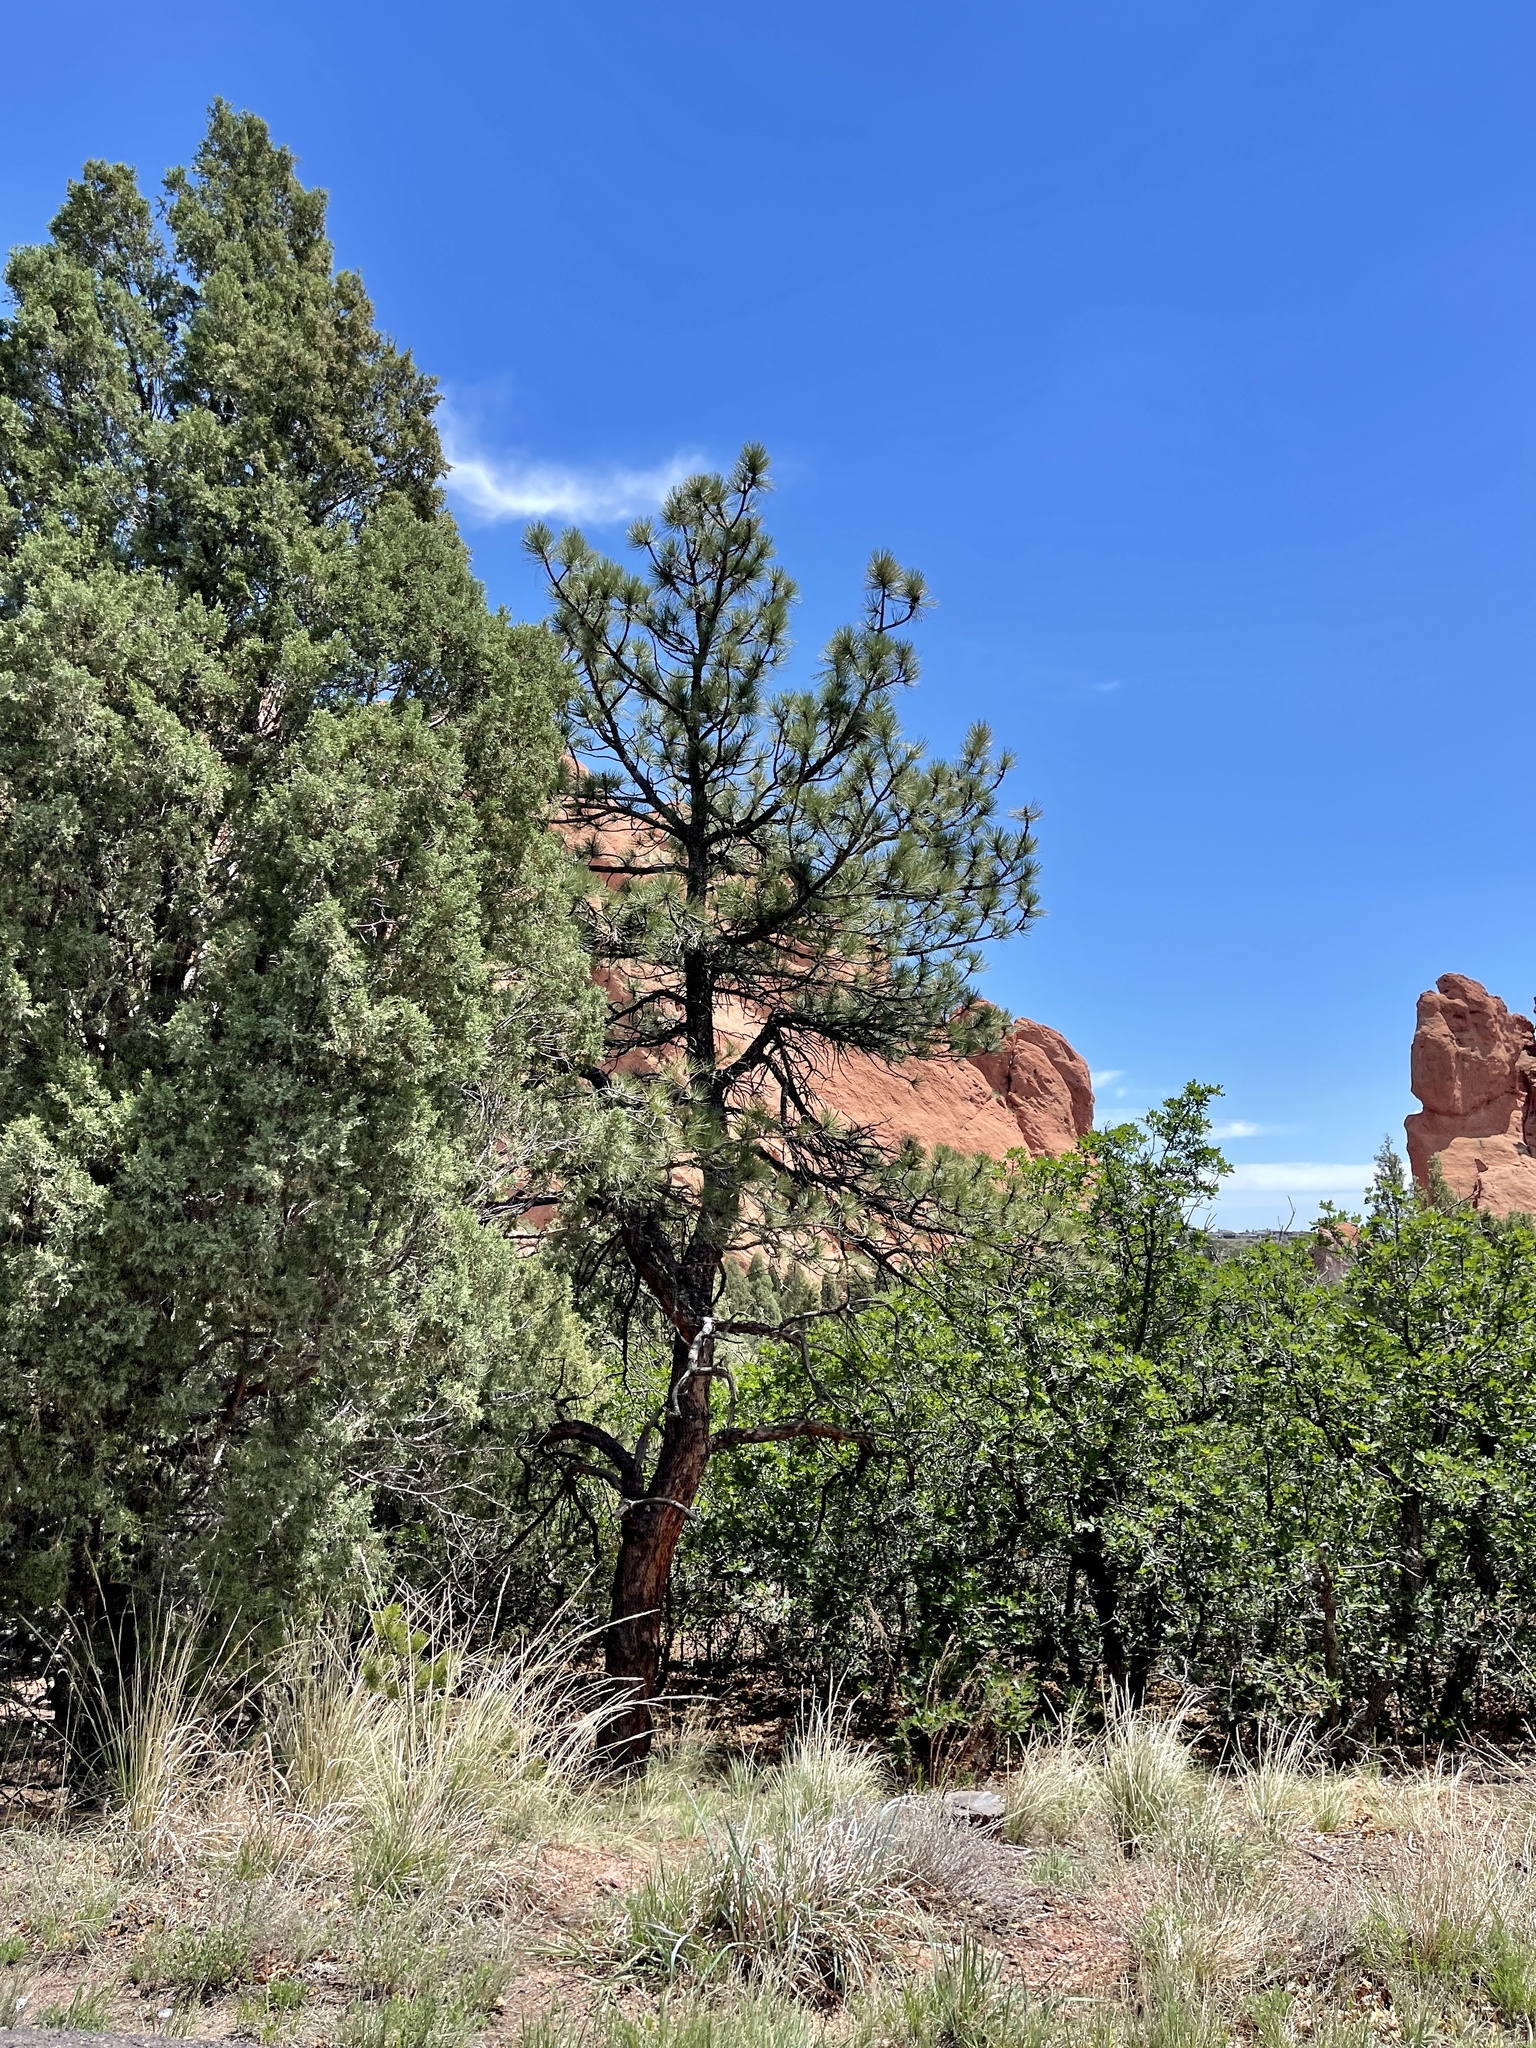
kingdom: Plantae
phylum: Tracheophyta
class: Pinopsida
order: Pinales
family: Pinaceae
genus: Pinus
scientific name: Pinus ponderosa
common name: Western yellow-pine
